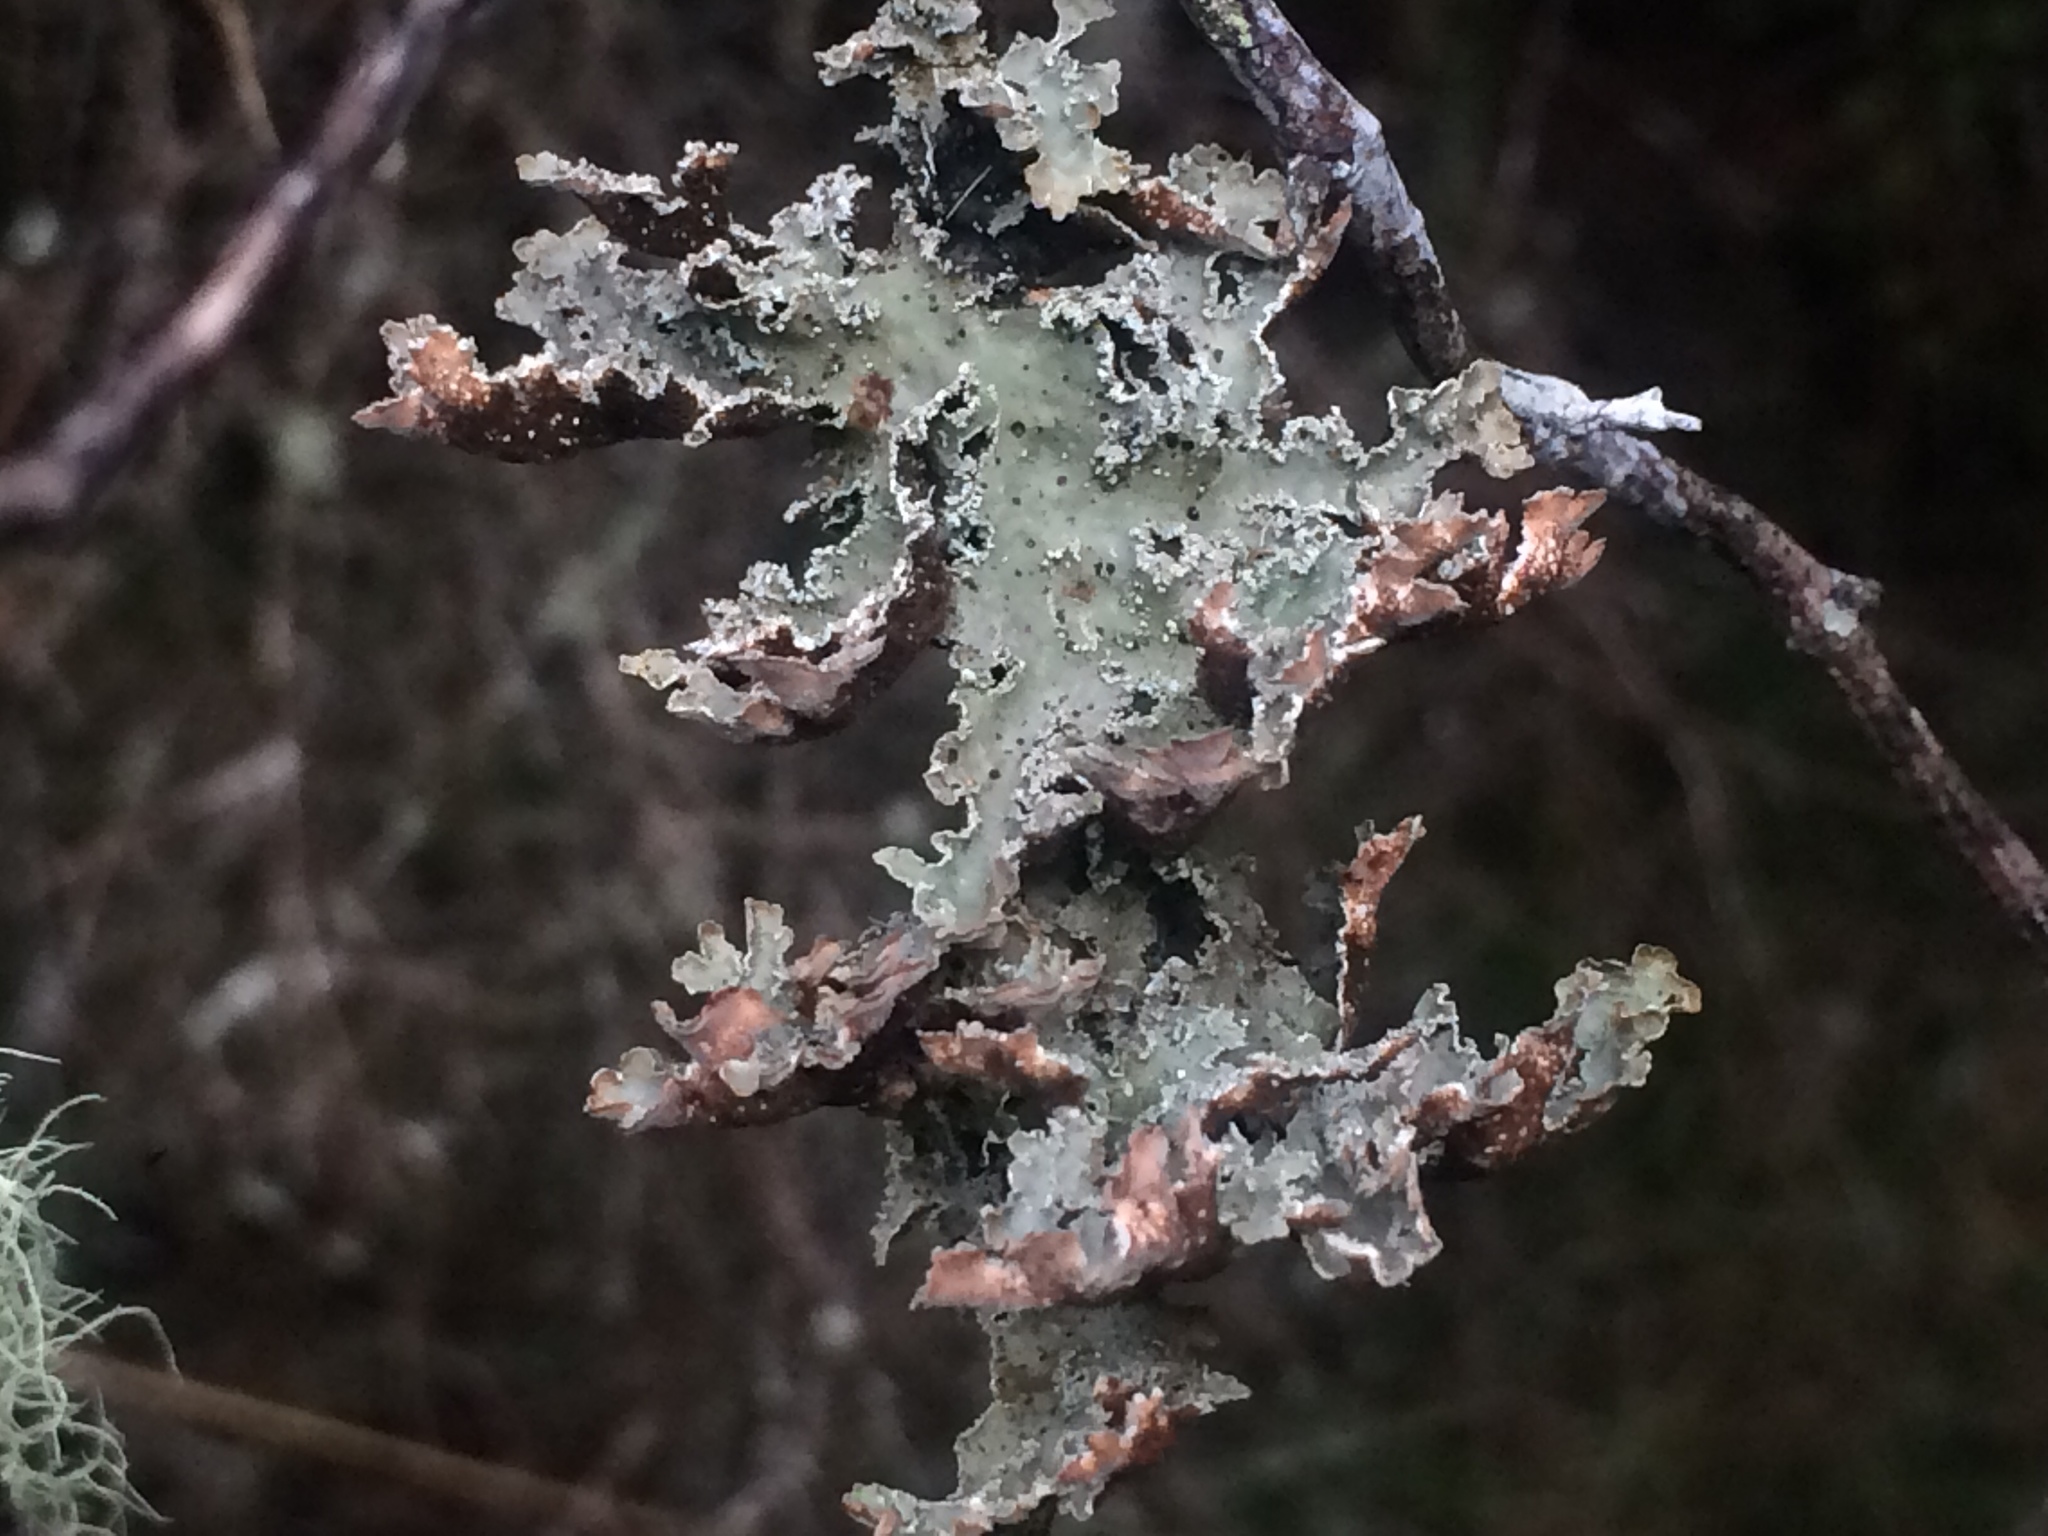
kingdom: Fungi
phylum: Ascomycota
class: Lecanoromycetes
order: Peltigerales
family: Lobariaceae
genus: Pseudocyphellaria
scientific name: Pseudocyphellaria granulata
